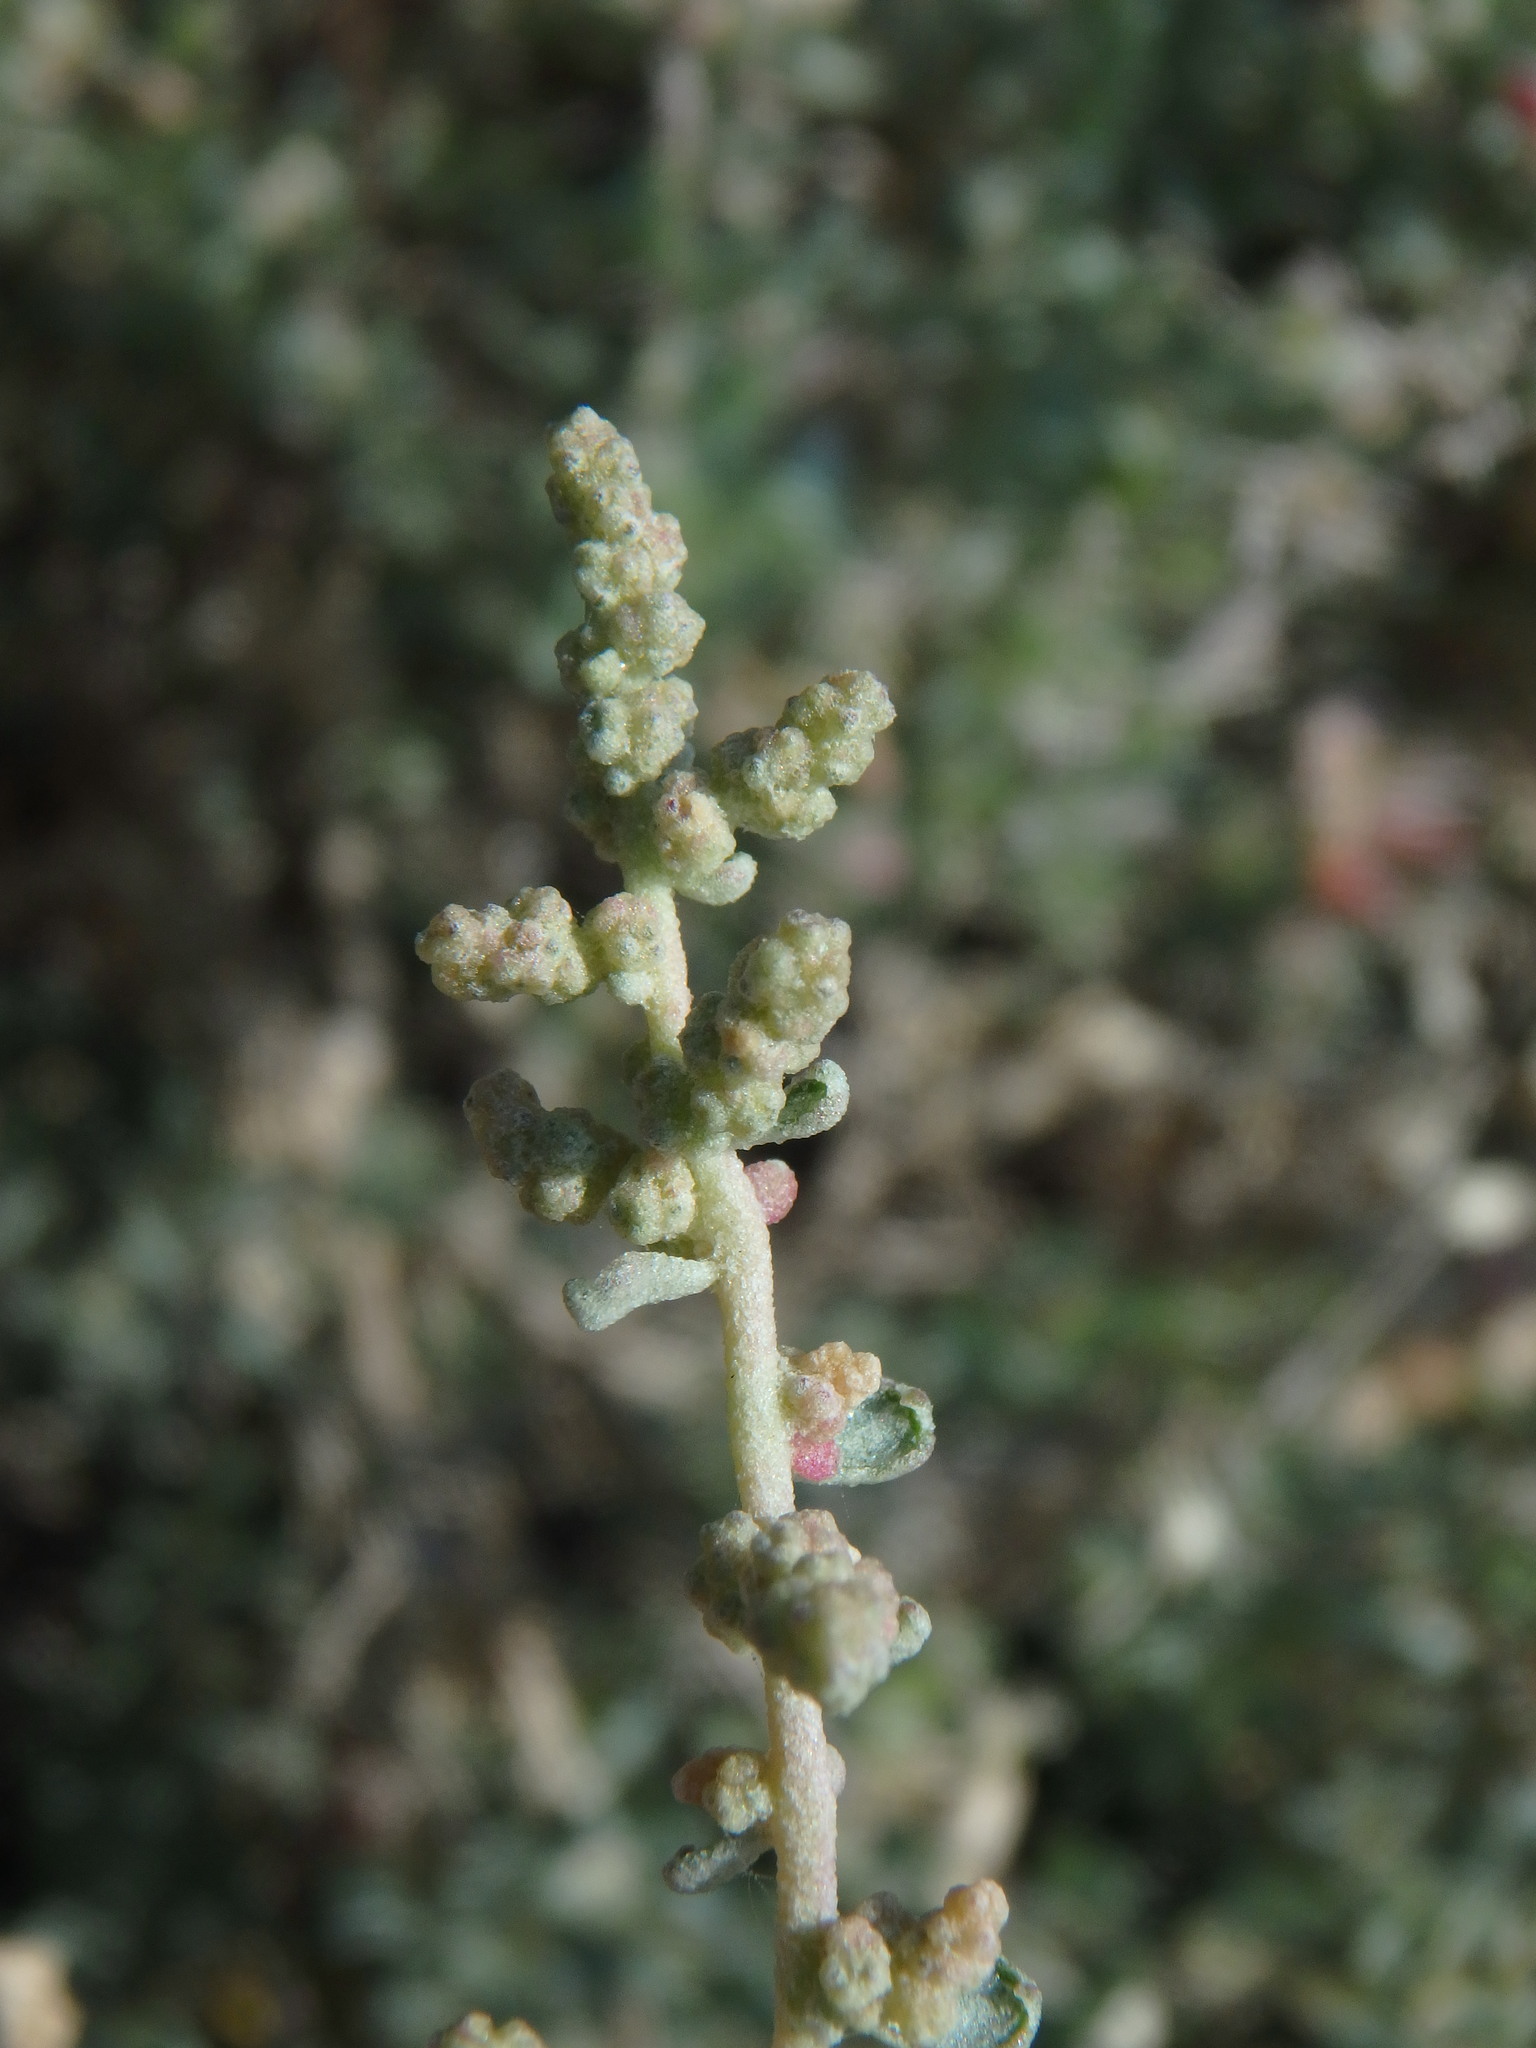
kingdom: Plantae
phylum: Tracheophyta
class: Magnoliopsida
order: Caryophyllales
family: Amaranthaceae
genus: Atriplex
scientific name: Atriplex halimus
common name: Shrubby orache
